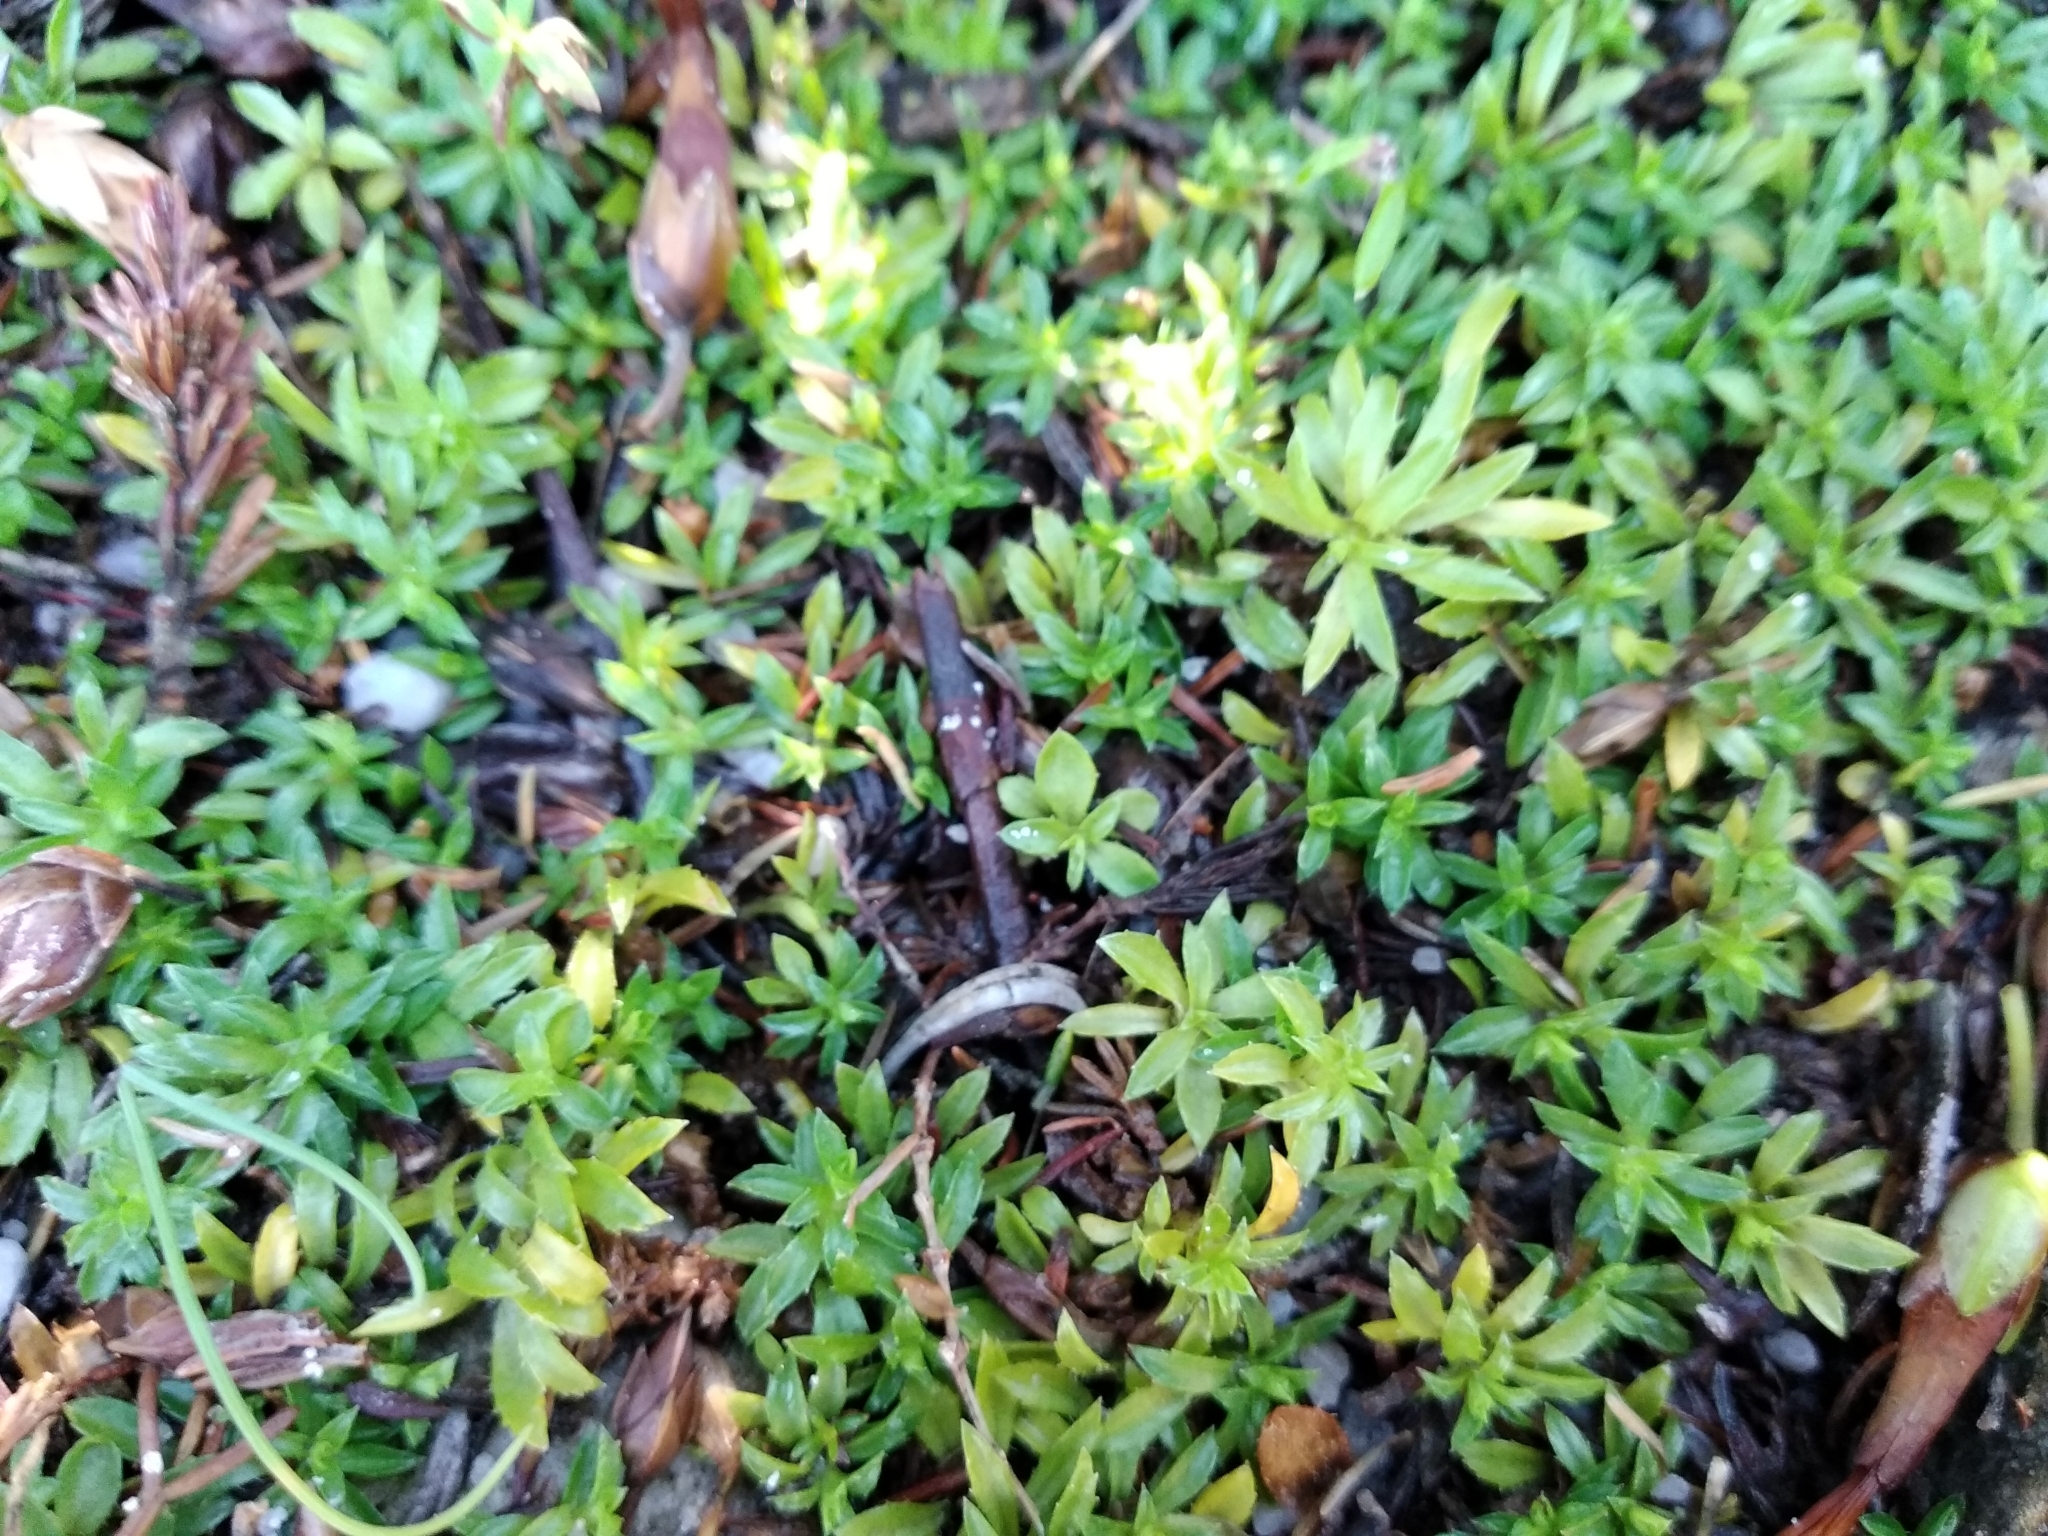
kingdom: Plantae
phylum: Tracheophyta
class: Magnoliopsida
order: Asterales
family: Campanulaceae
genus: Roella
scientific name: Roella muscosa
